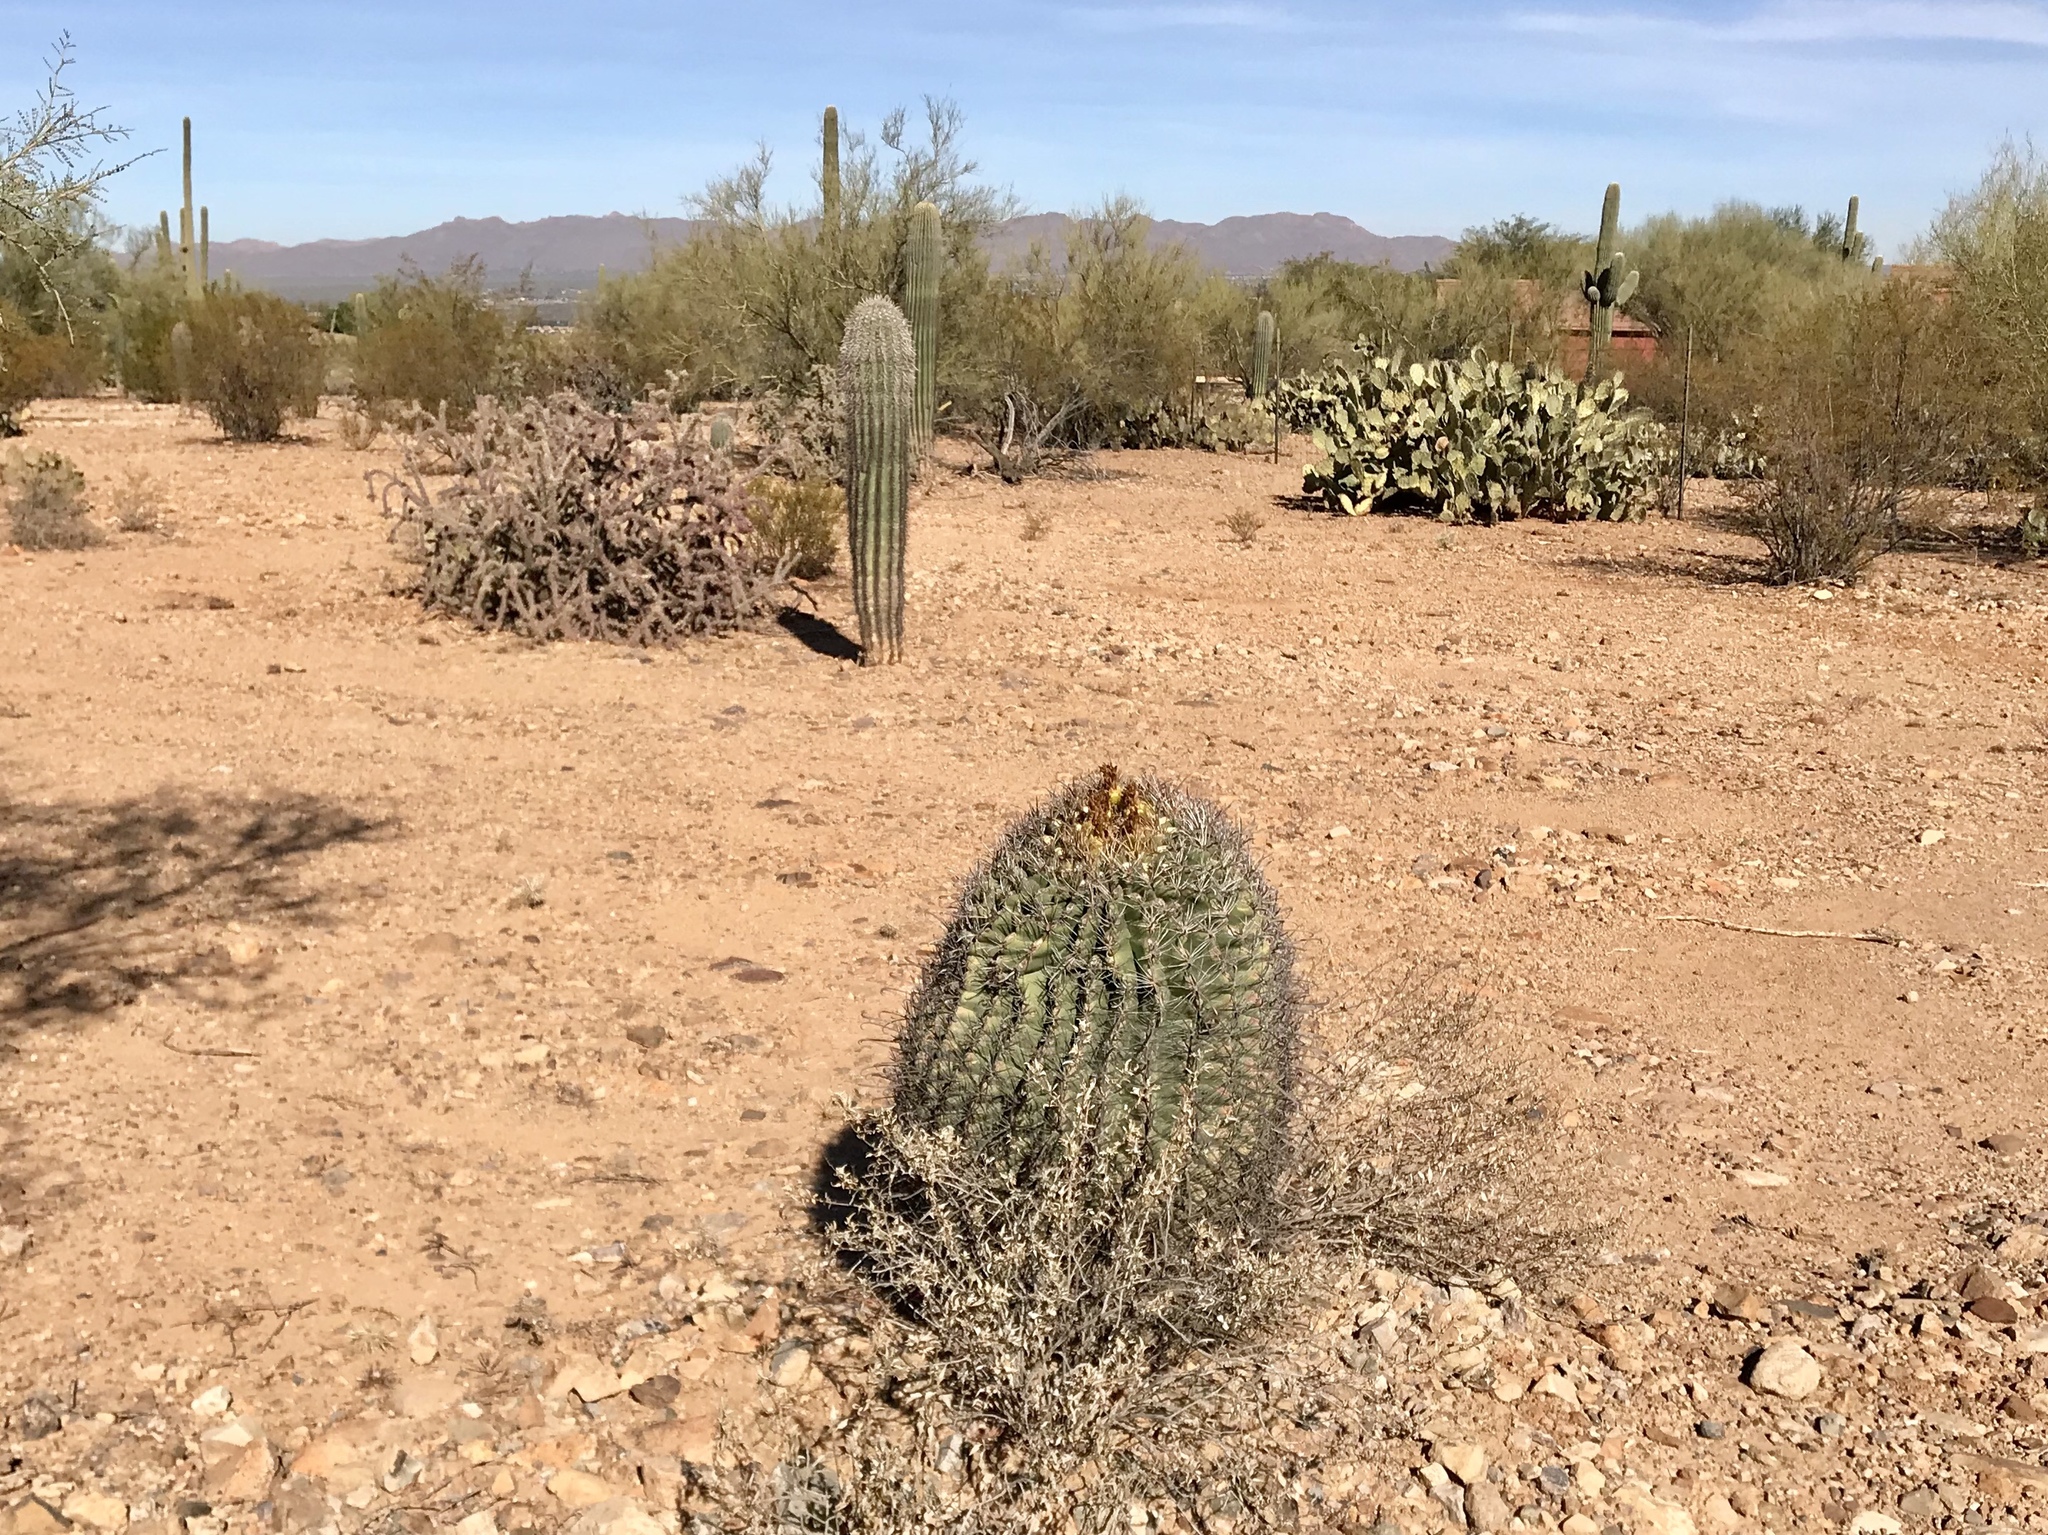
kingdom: Plantae
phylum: Tracheophyta
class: Magnoliopsida
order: Caryophyllales
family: Cactaceae
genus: Ferocactus
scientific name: Ferocactus wislizeni
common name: Candy barrel cactus
